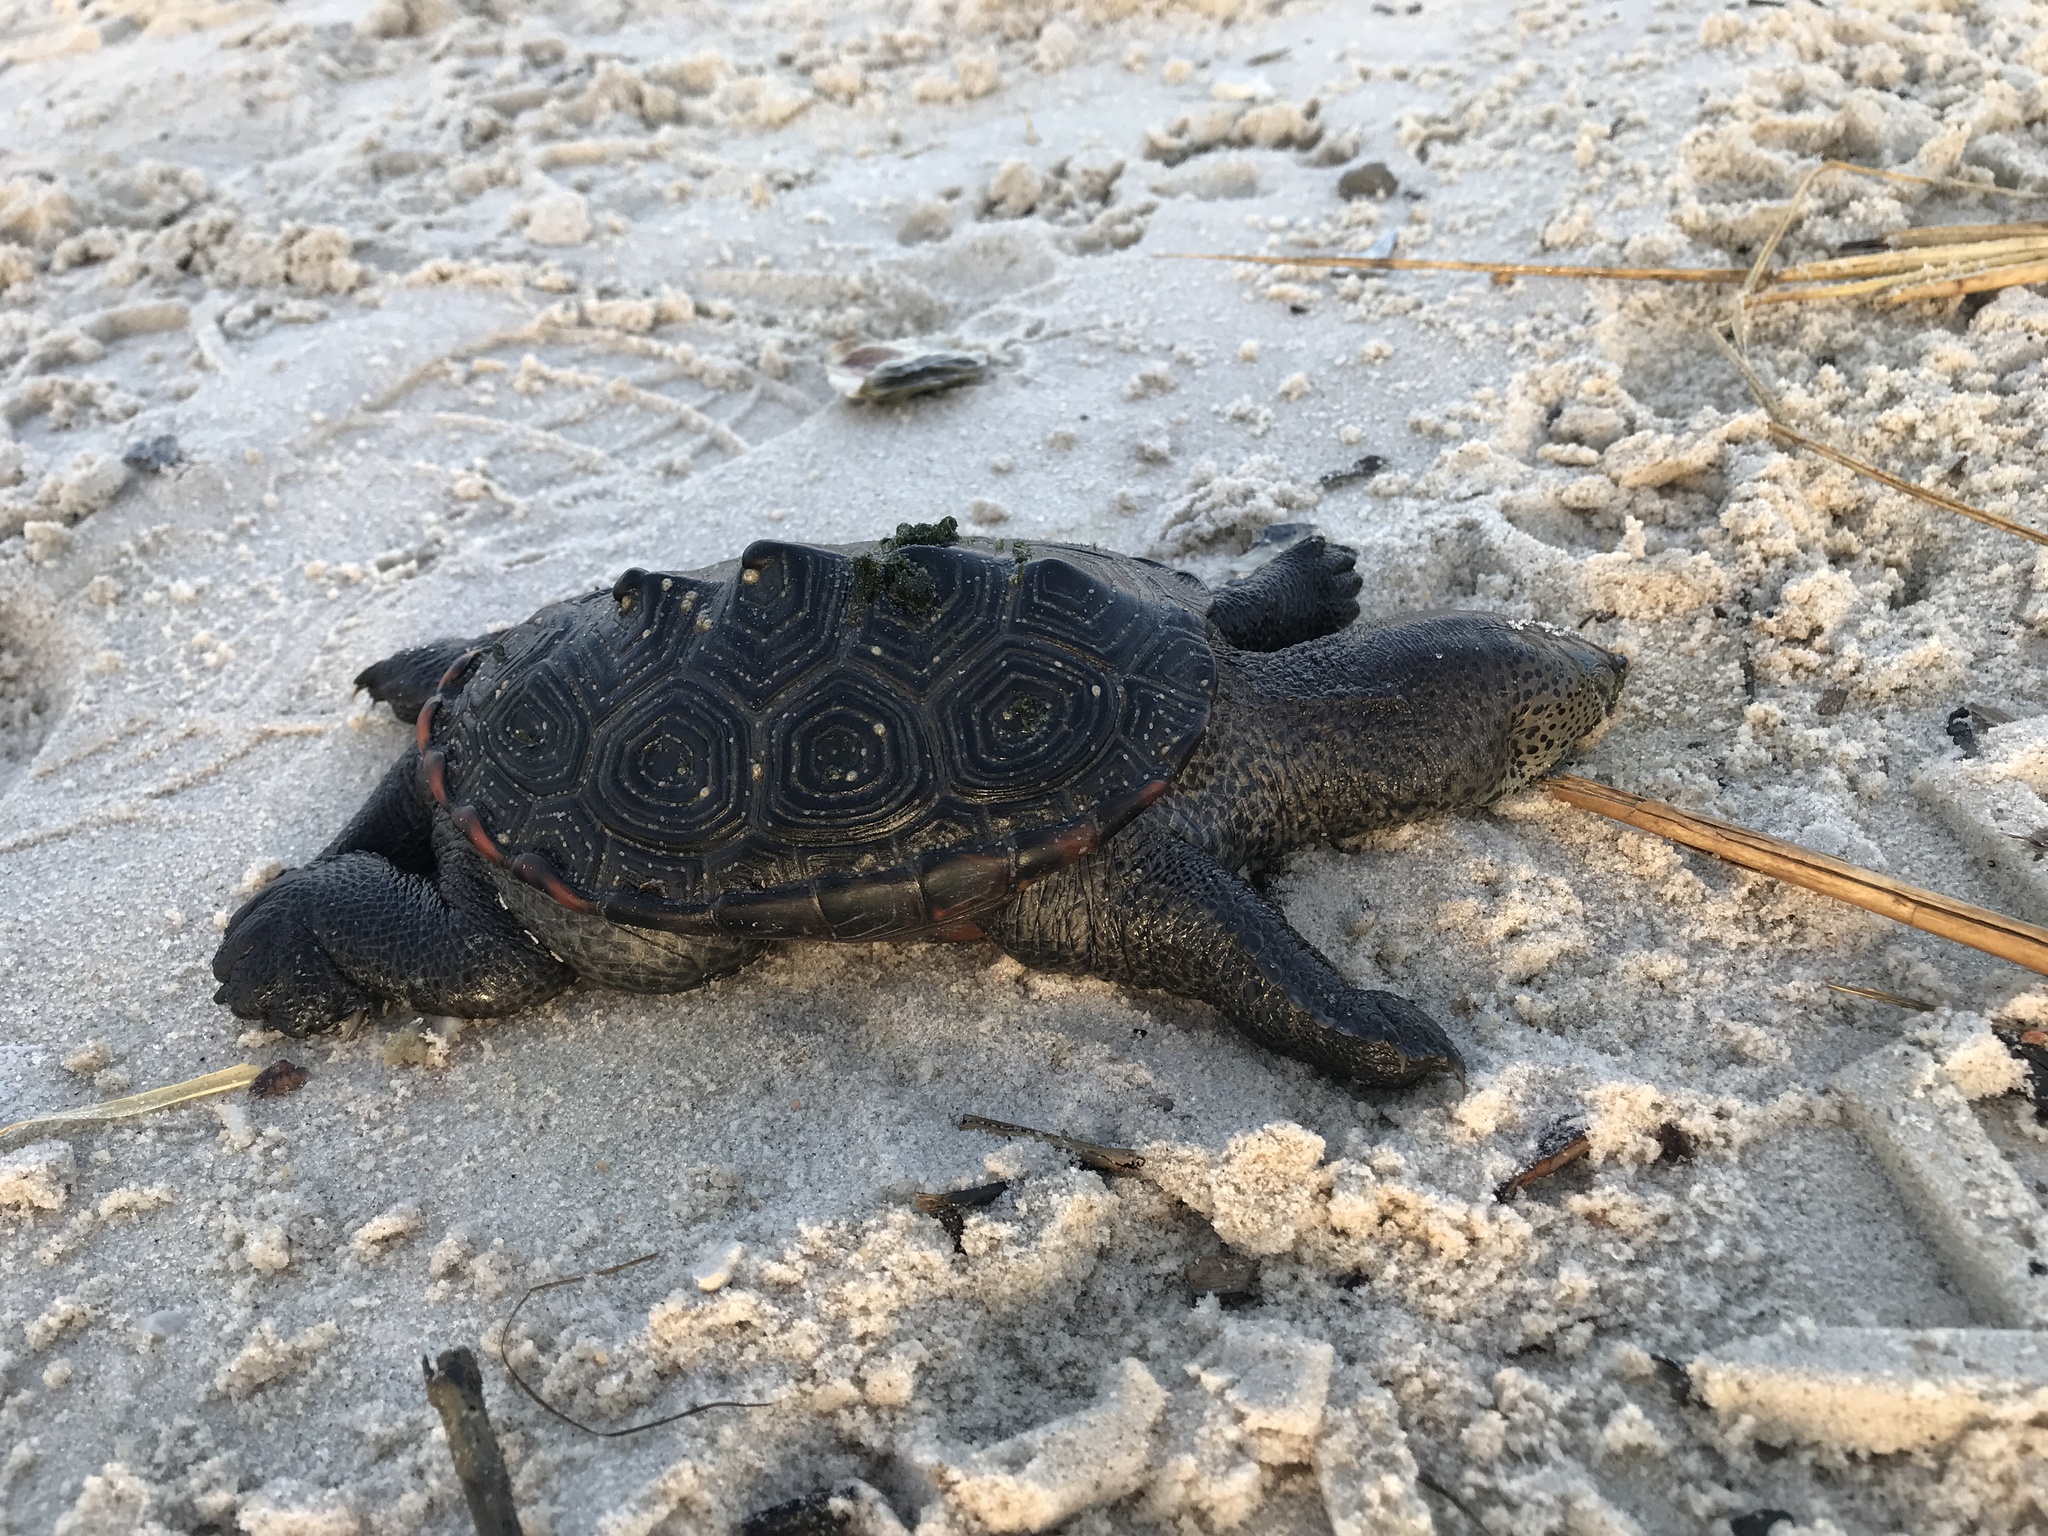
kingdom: Animalia
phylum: Chordata
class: Testudines
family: Emydidae
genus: Malaclemys
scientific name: Malaclemys terrapin
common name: Diamondback terrapin
